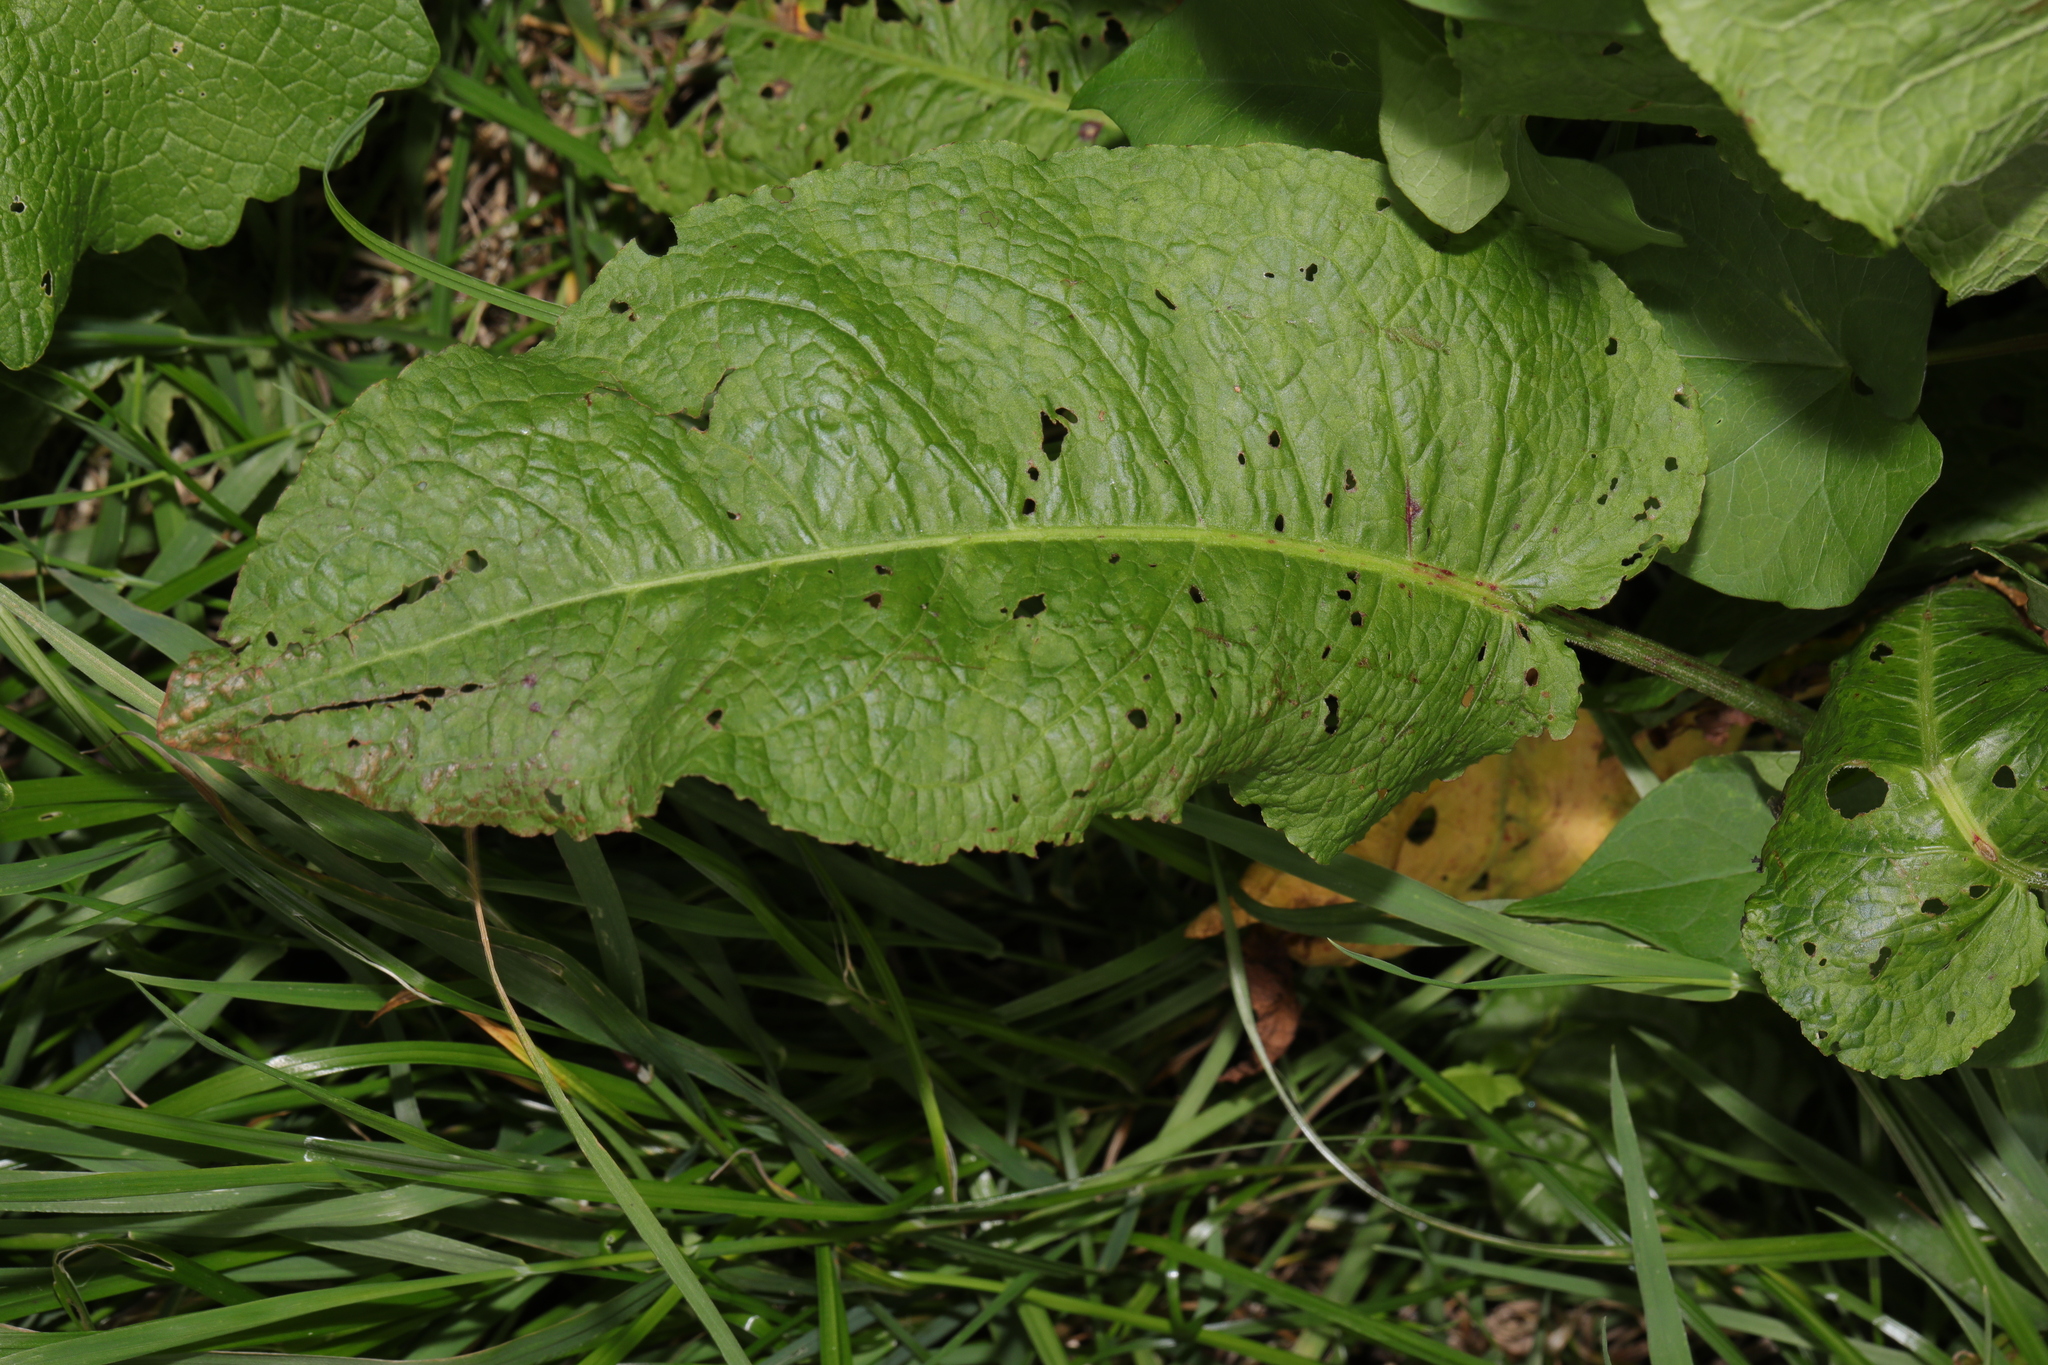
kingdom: Plantae
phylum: Tracheophyta
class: Magnoliopsida
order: Caryophyllales
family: Polygonaceae
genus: Rumex
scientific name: Rumex obtusifolius
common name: Bitter dock
